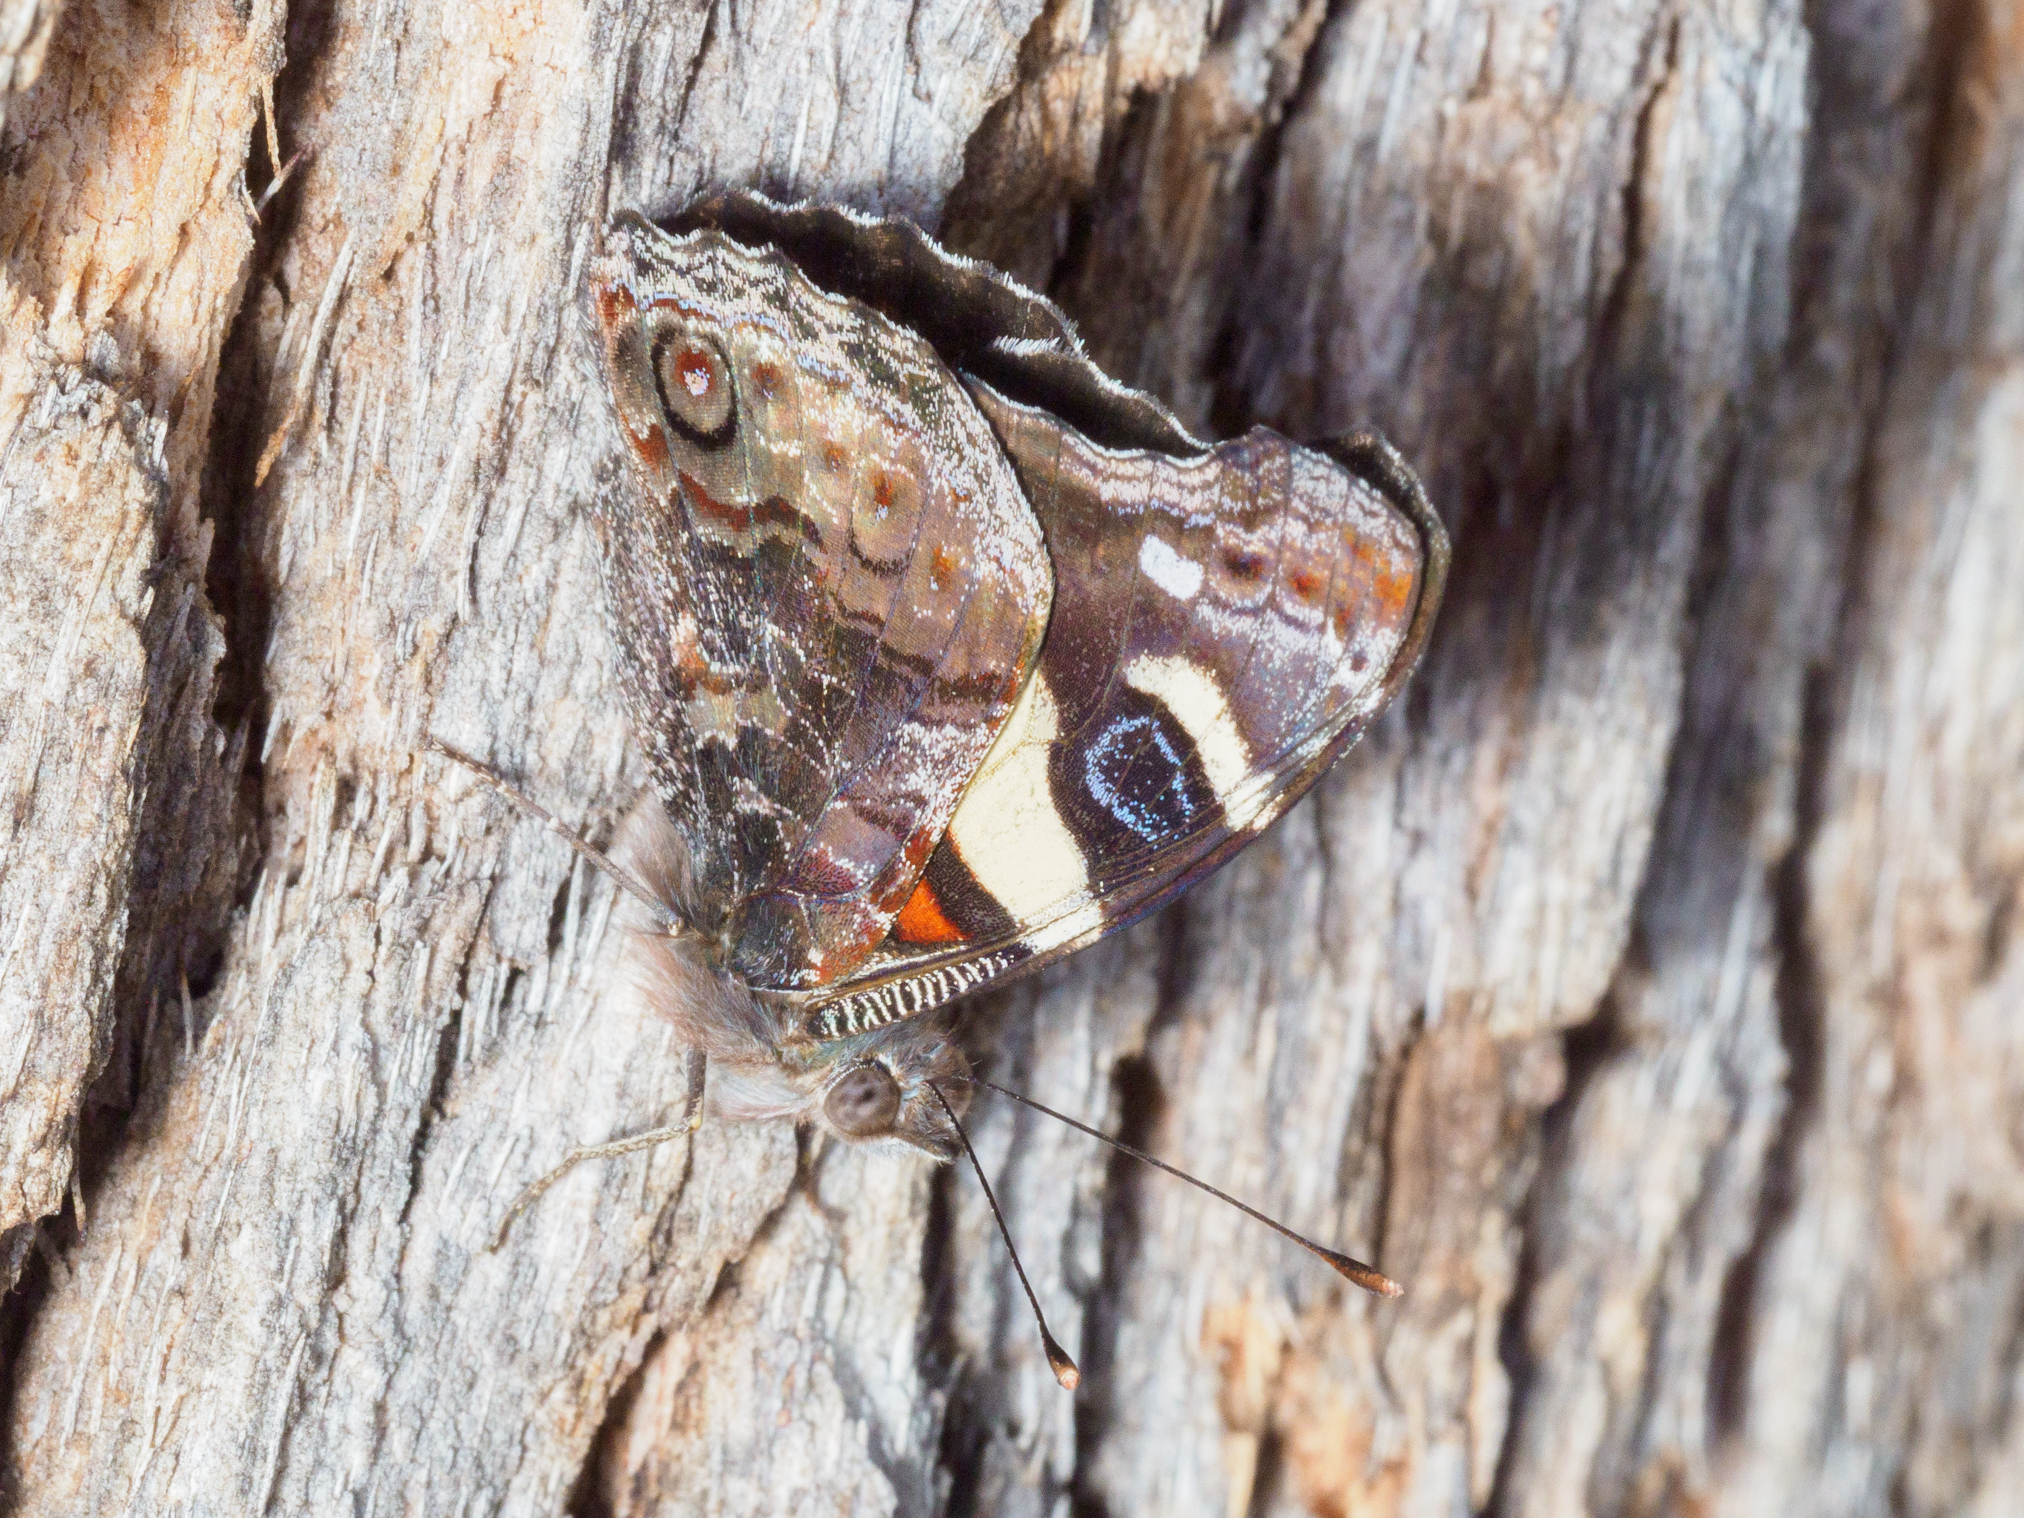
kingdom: Animalia
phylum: Arthropoda
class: Insecta
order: Lepidoptera
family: Nymphalidae
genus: Vanessa
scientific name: Vanessa itea
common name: Yellow admiral
